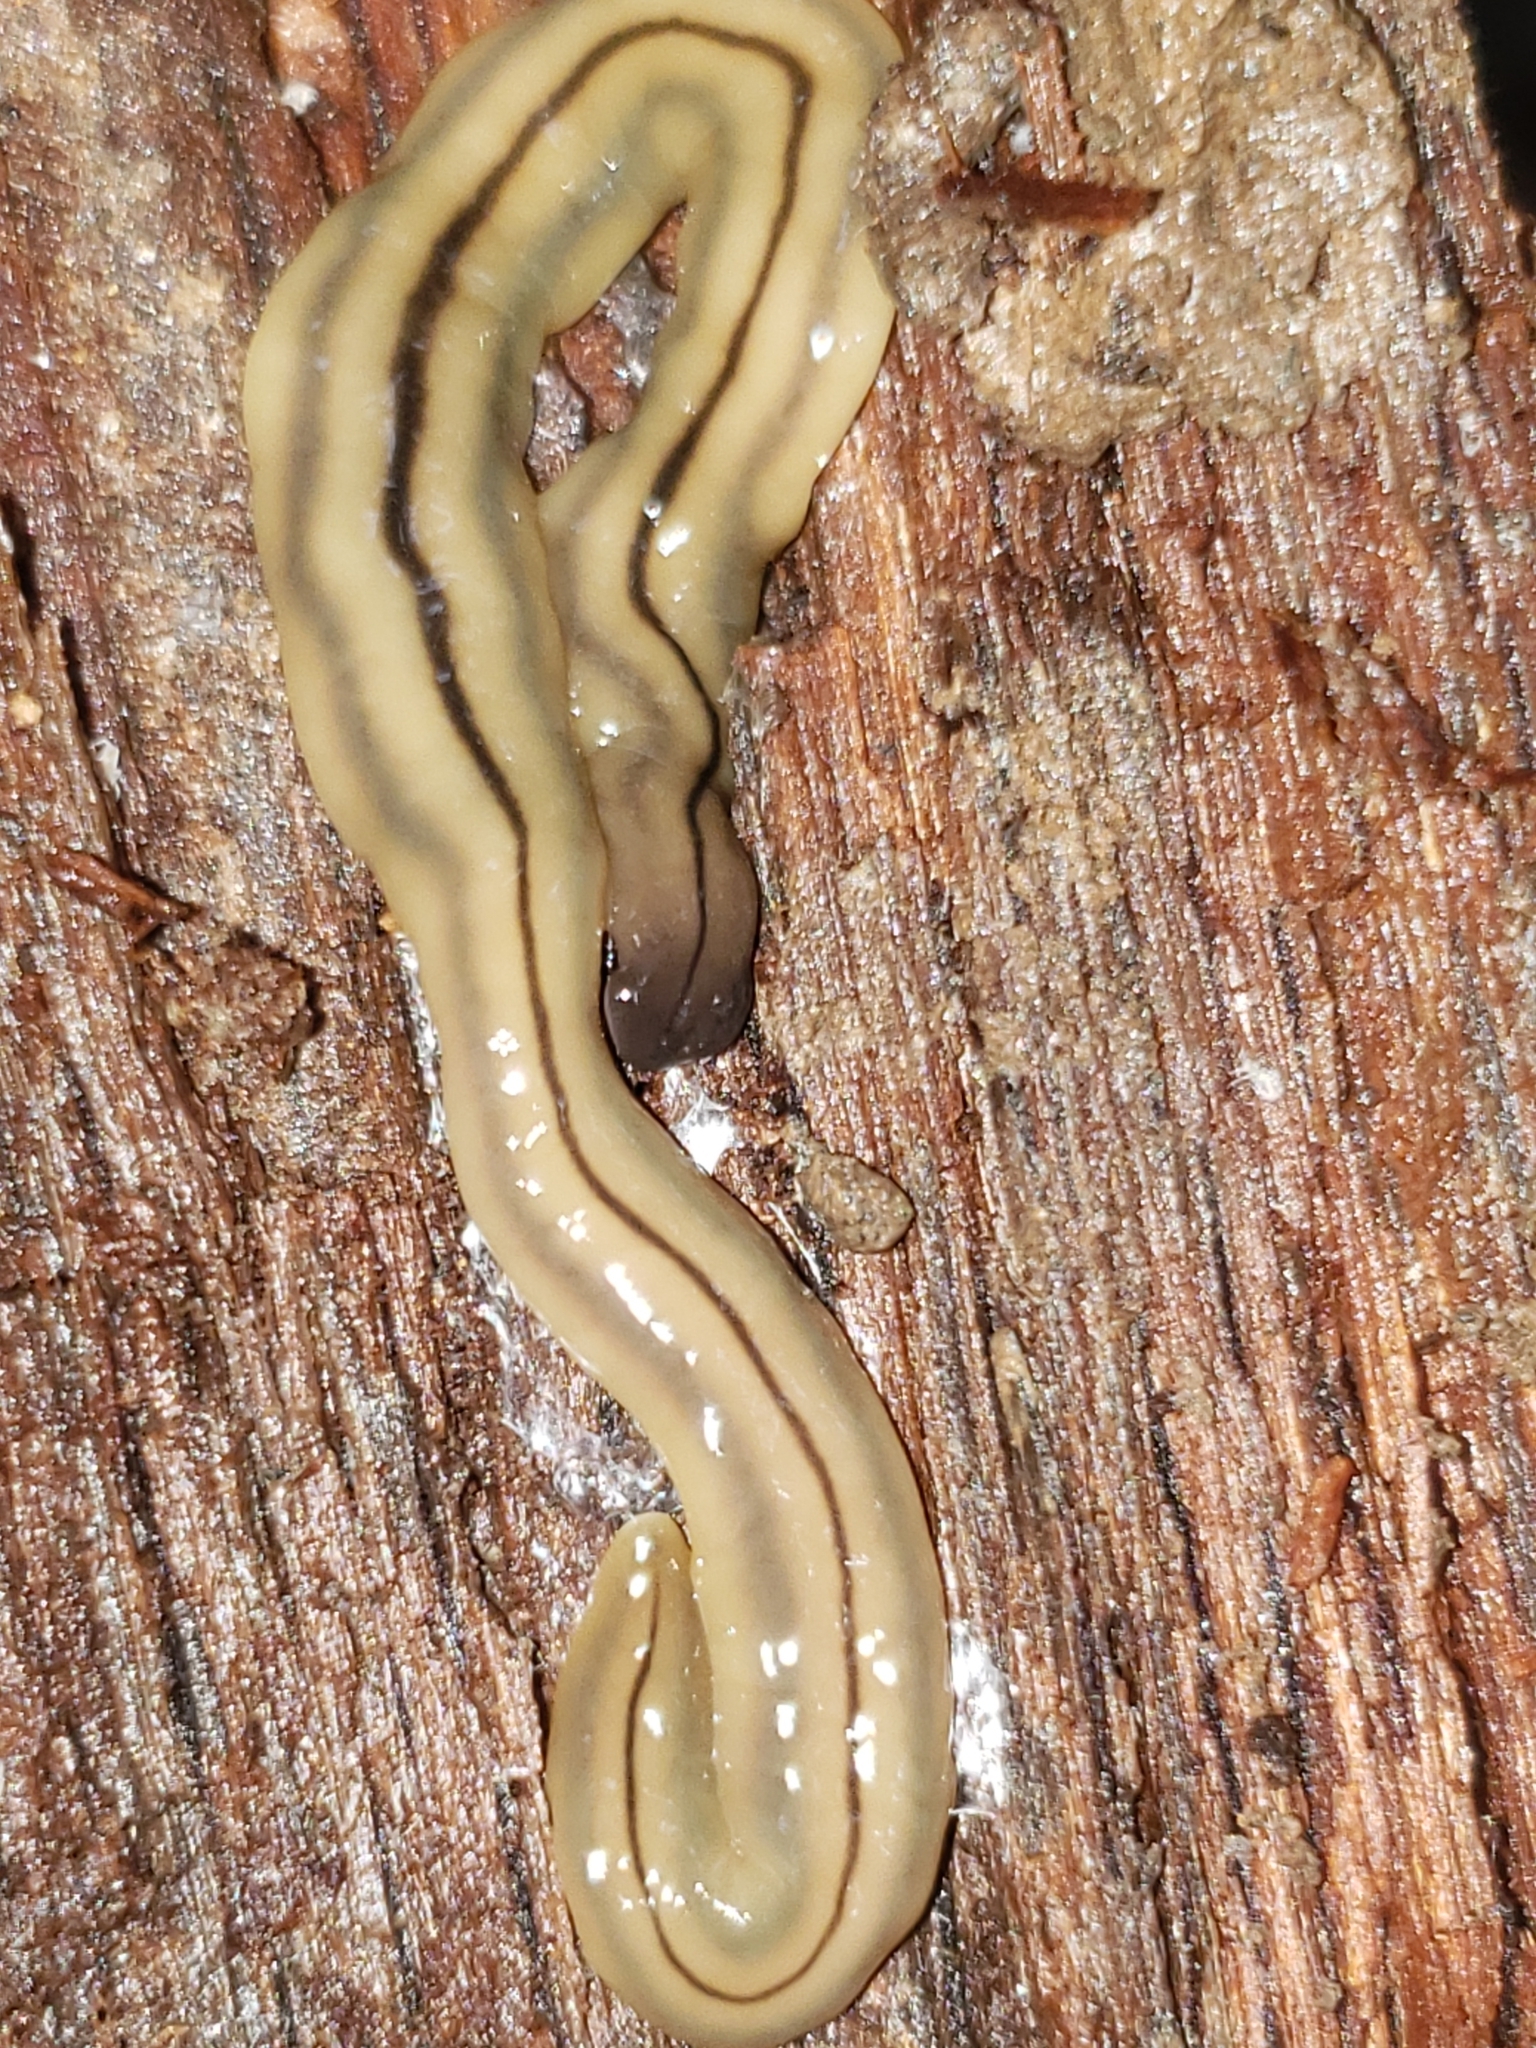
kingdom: Animalia
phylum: Platyhelminthes
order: Tricladida
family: Geoplanidae
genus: Bipalium
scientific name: Bipalium pennsylvanicum
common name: Three-lined land planarian
